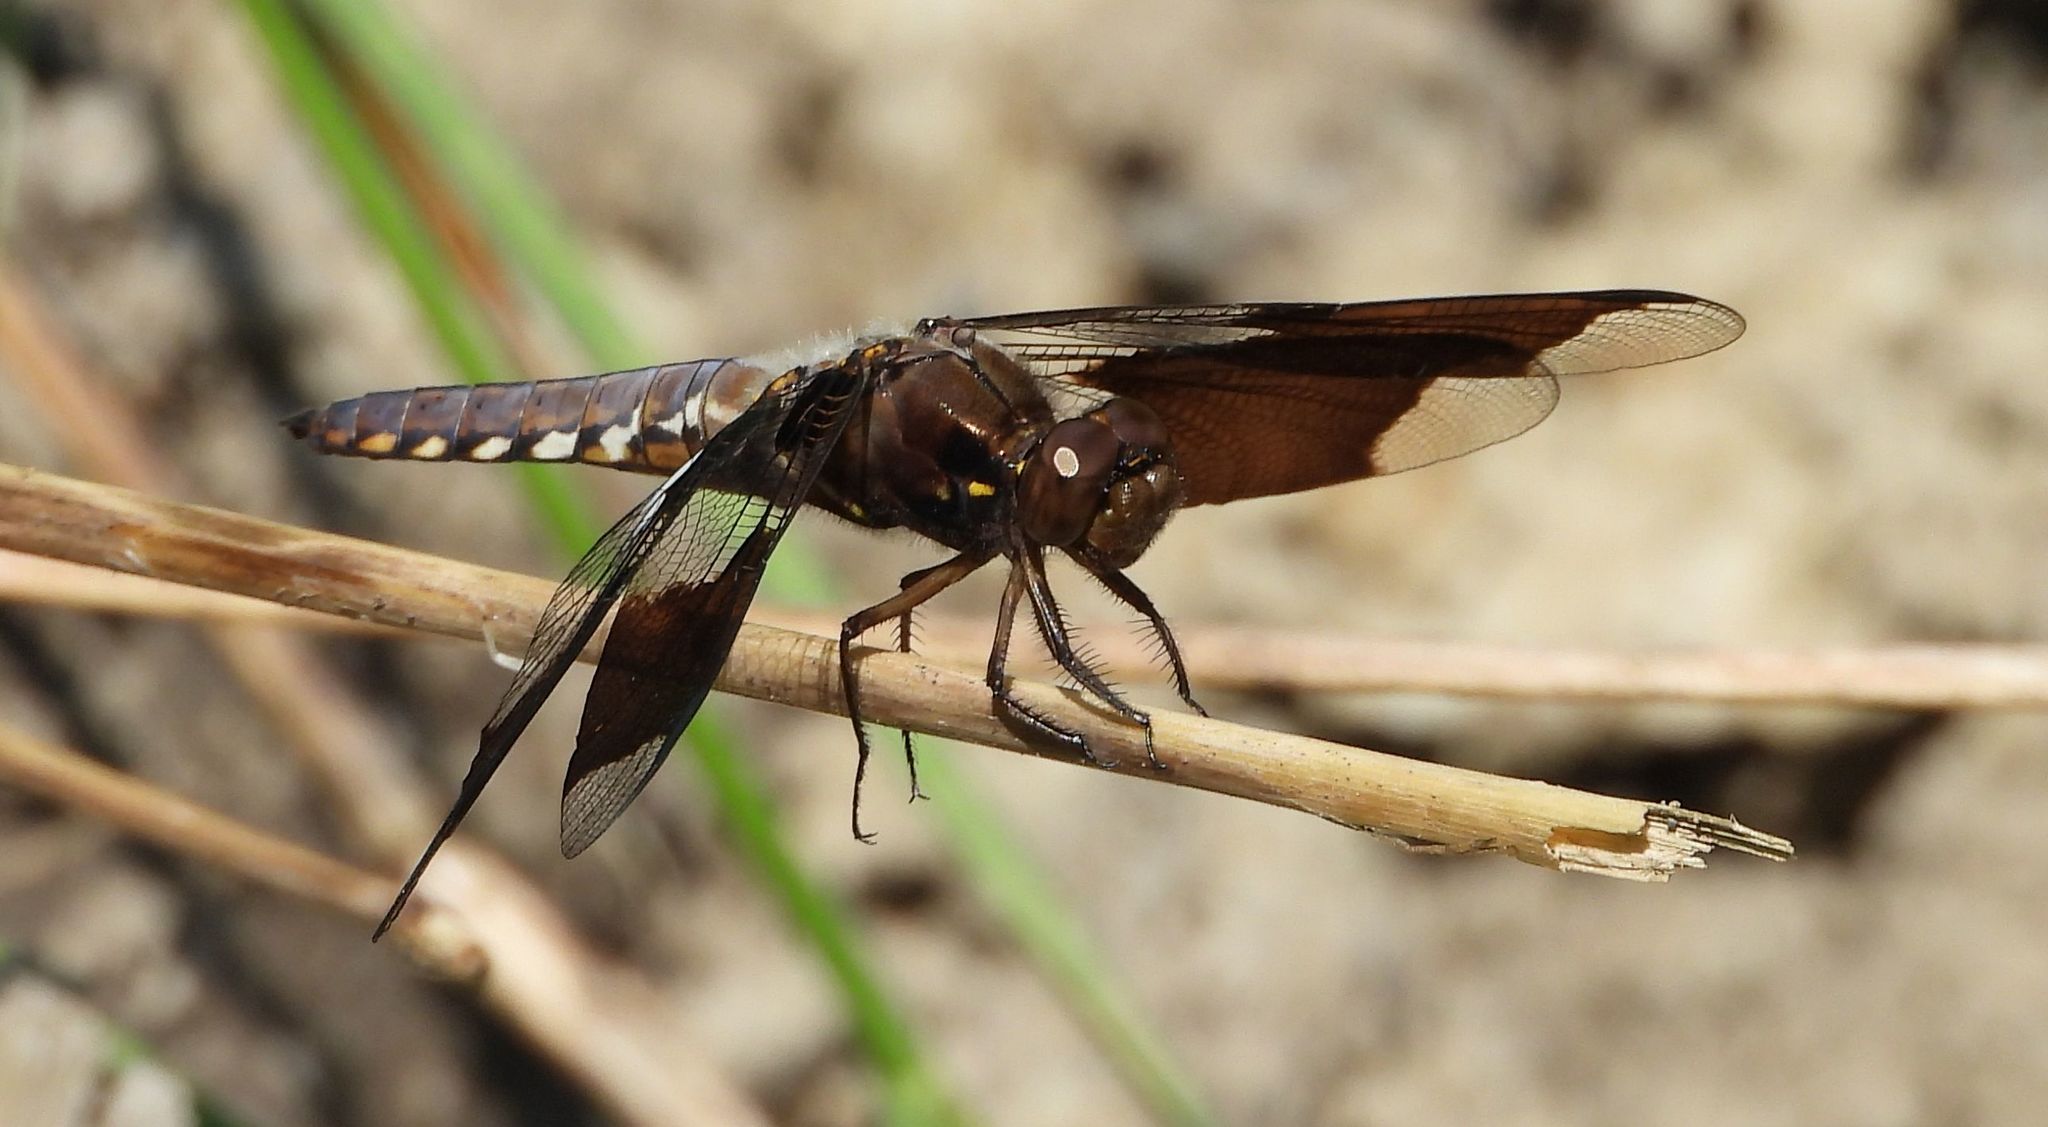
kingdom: Animalia
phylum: Arthropoda
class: Insecta
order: Odonata
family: Libellulidae
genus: Plathemis
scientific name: Plathemis lydia
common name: Common whitetail
